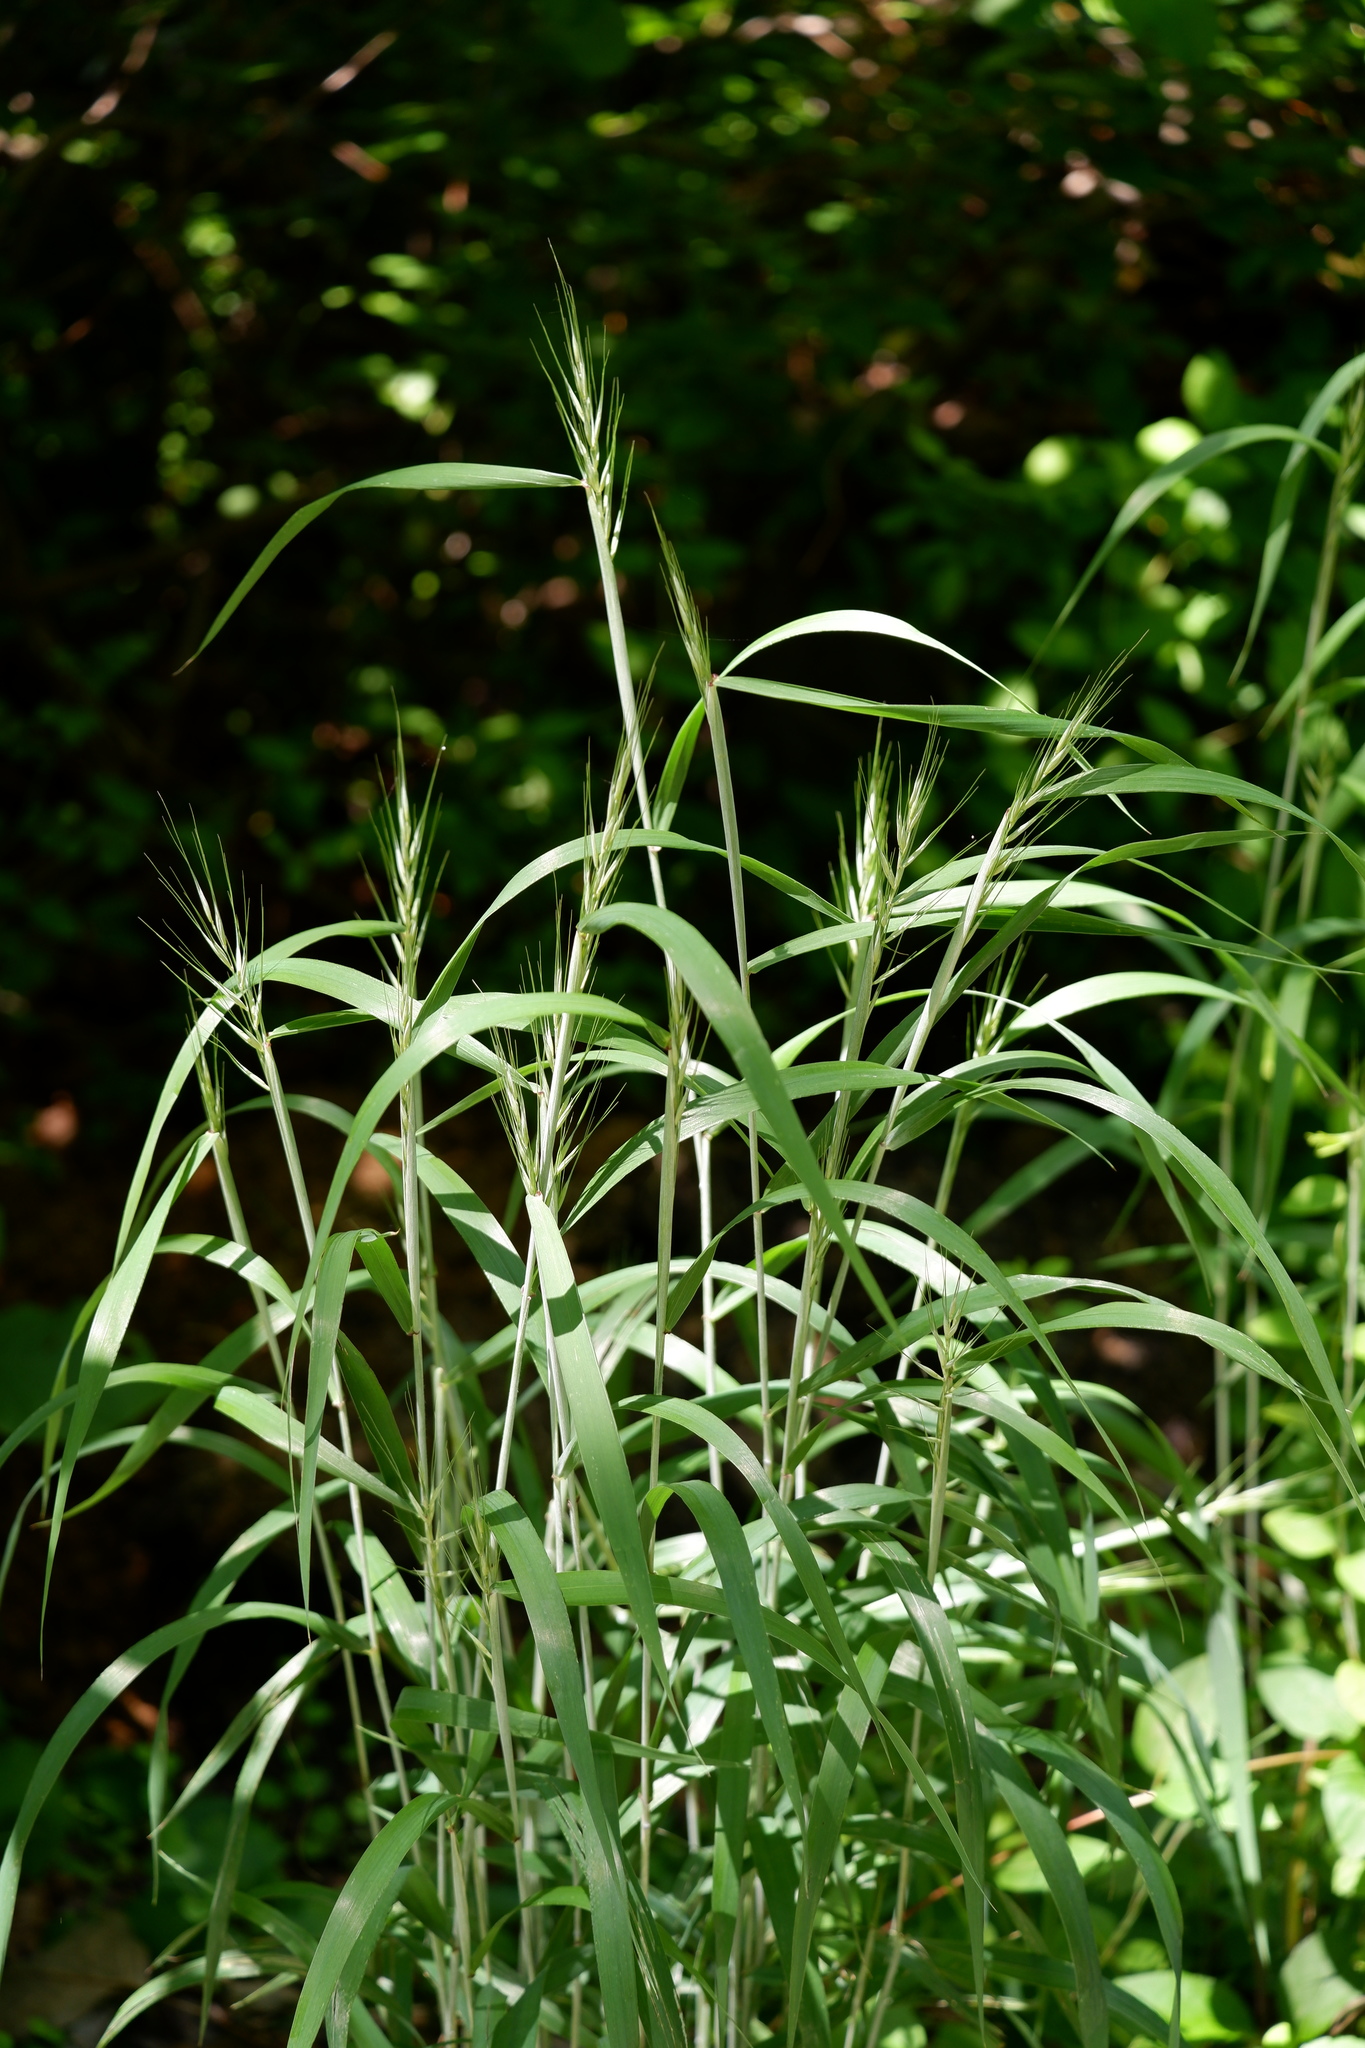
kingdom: Plantae
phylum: Tracheophyta
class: Liliopsida
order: Poales
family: Poaceae
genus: Elymus
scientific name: Elymus hystrix
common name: Bottlebrush grass
